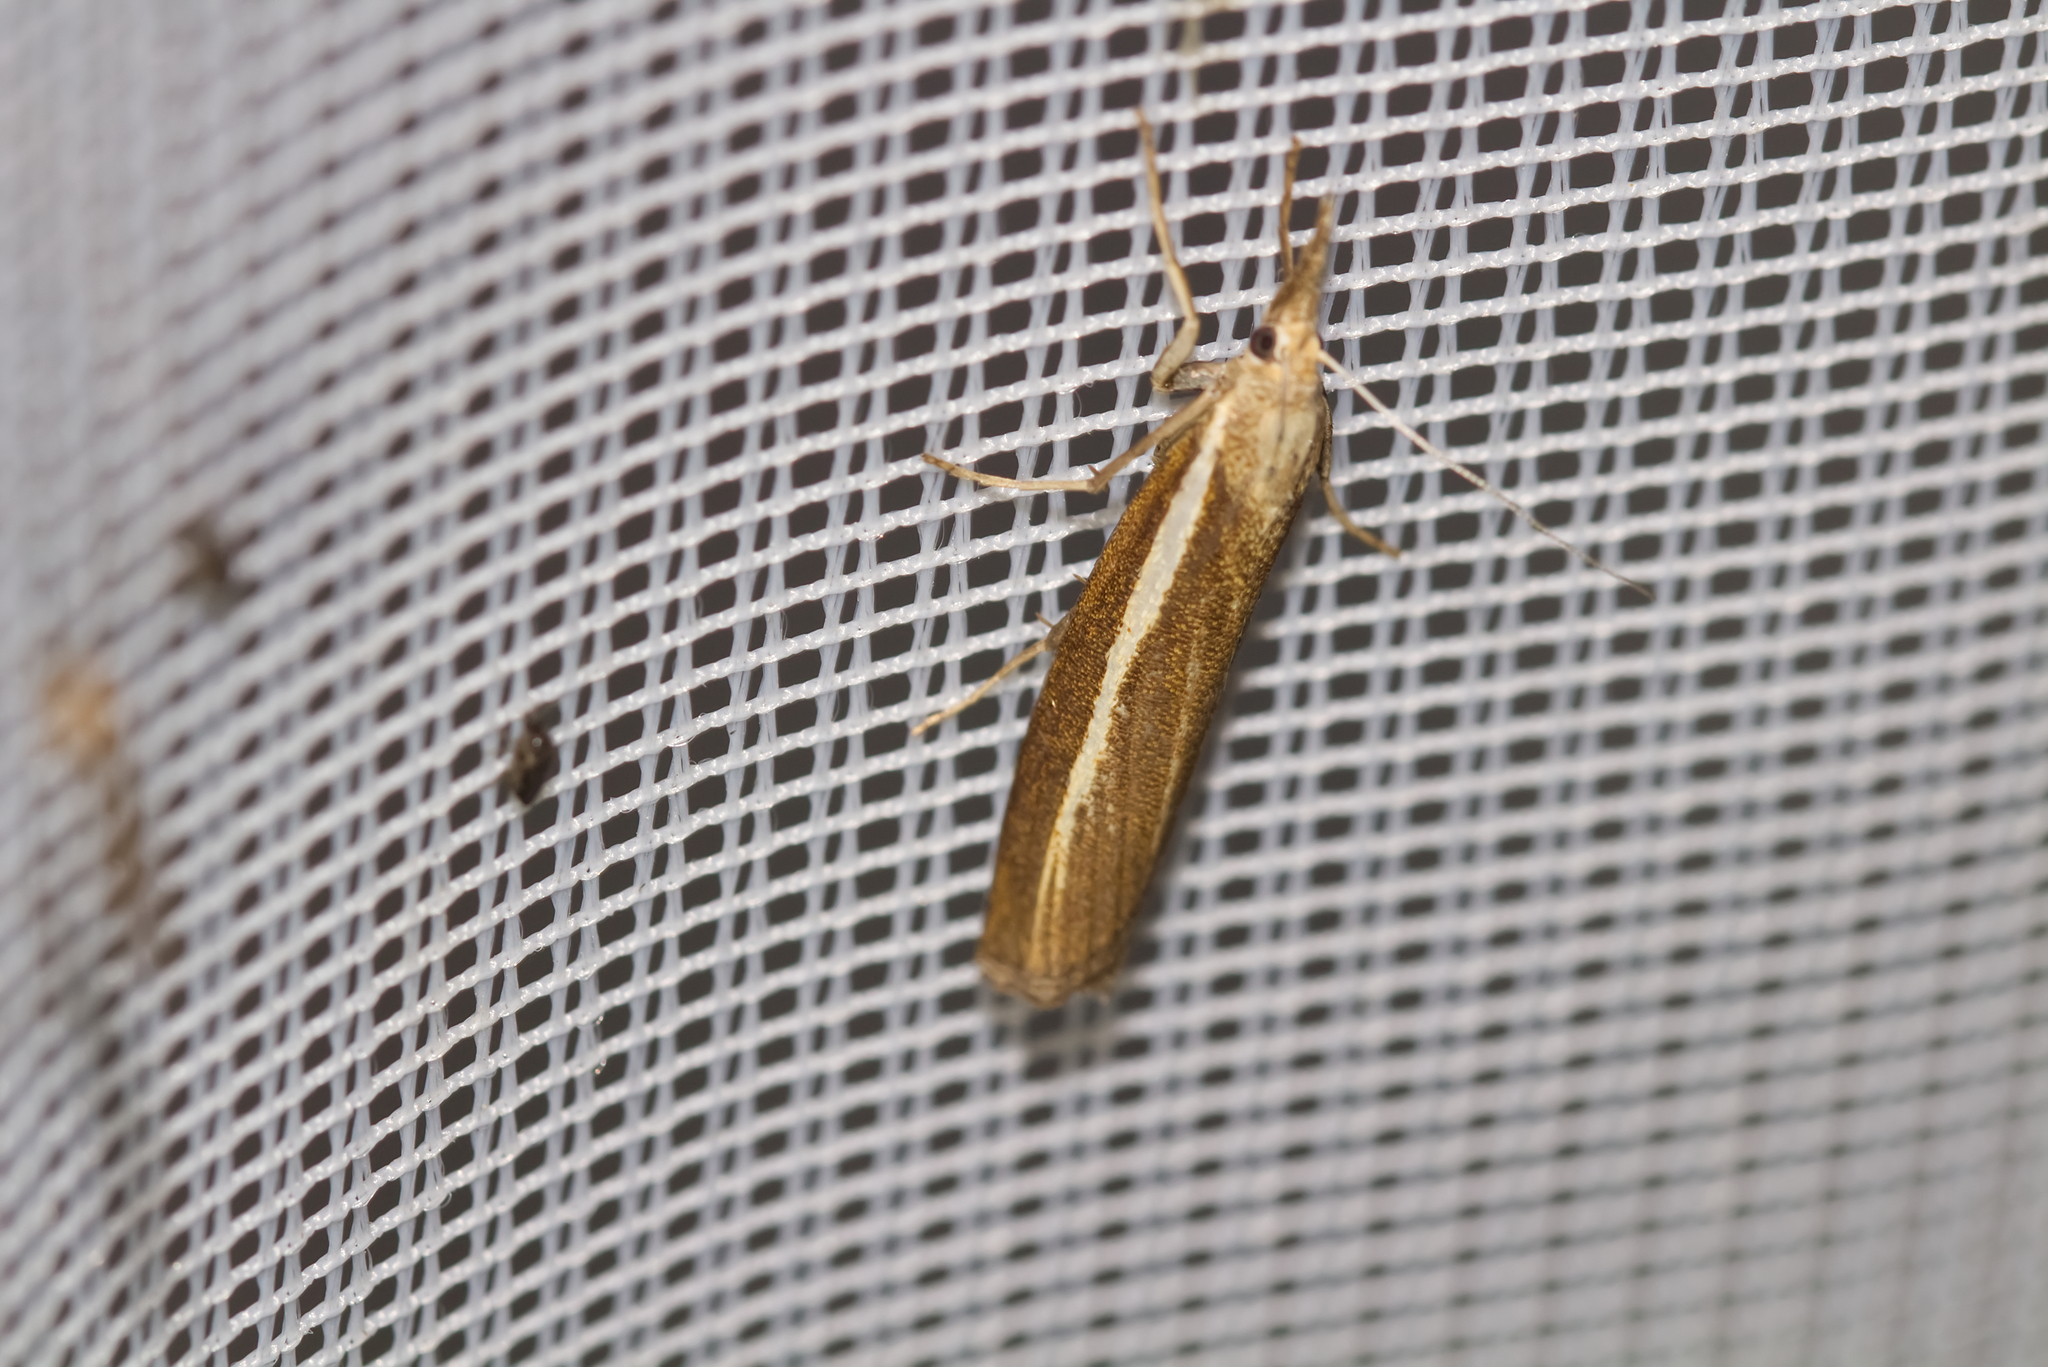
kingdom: Animalia
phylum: Arthropoda
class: Insecta
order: Lepidoptera
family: Crambidae
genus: Agriphila
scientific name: Agriphila tristellus
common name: Common grass-veneer
